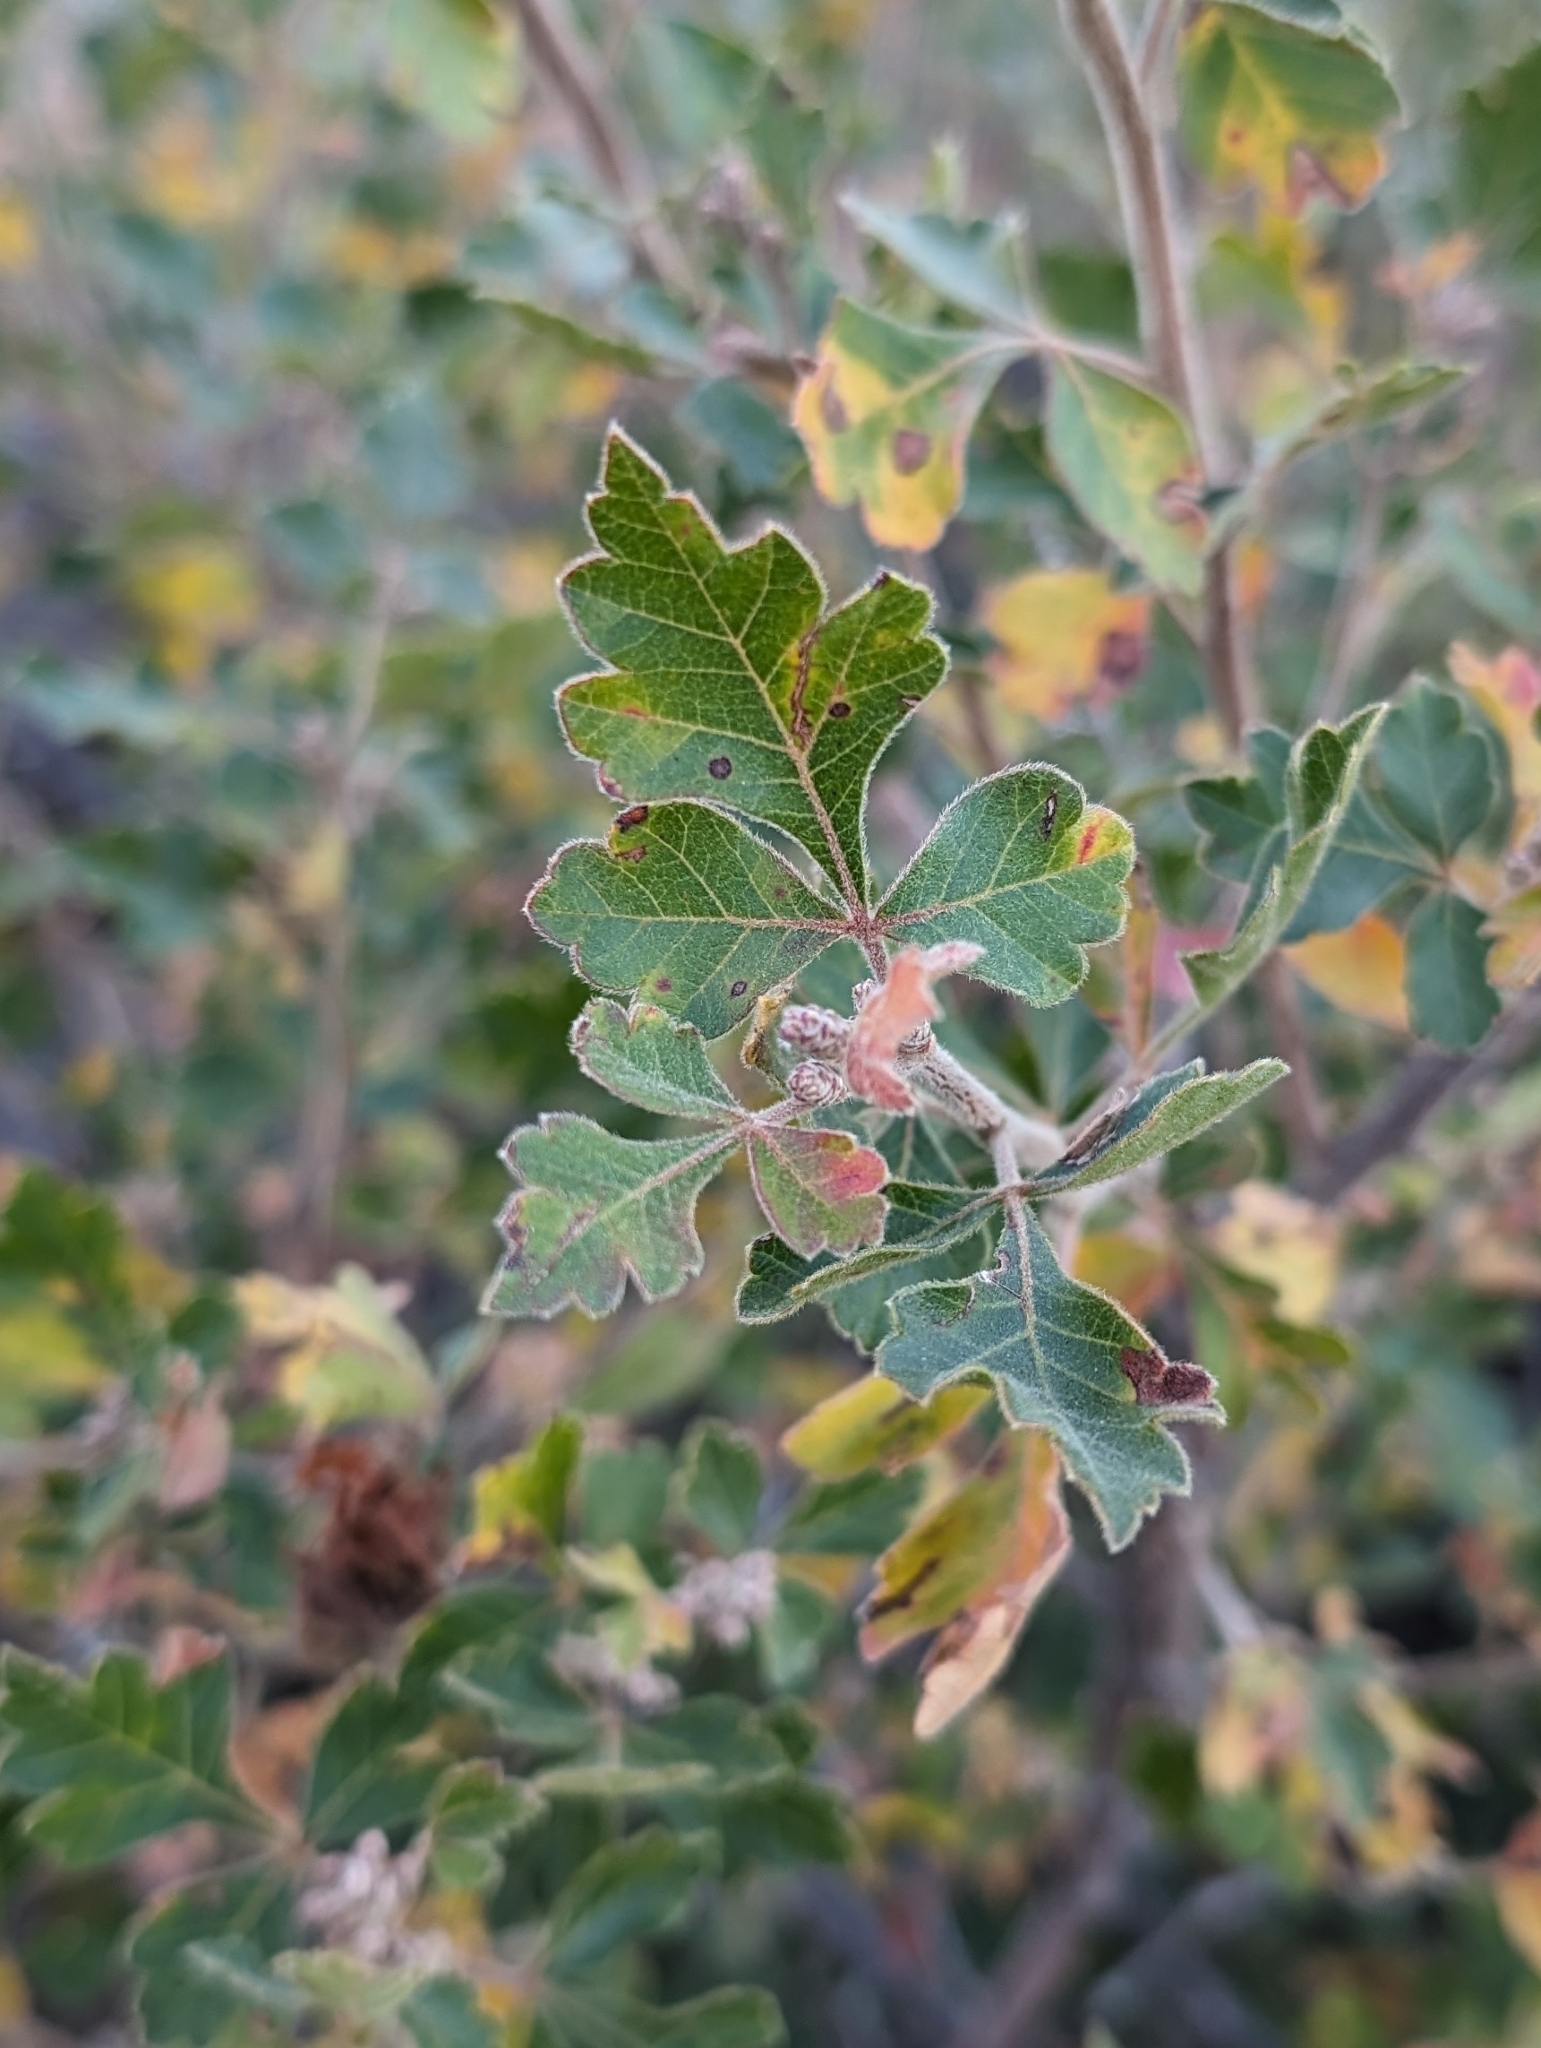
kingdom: Plantae
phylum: Tracheophyta
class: Magnoliopsida
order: Sapindales
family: Anacardiaceae
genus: Rhus
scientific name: Rhus trilobata
